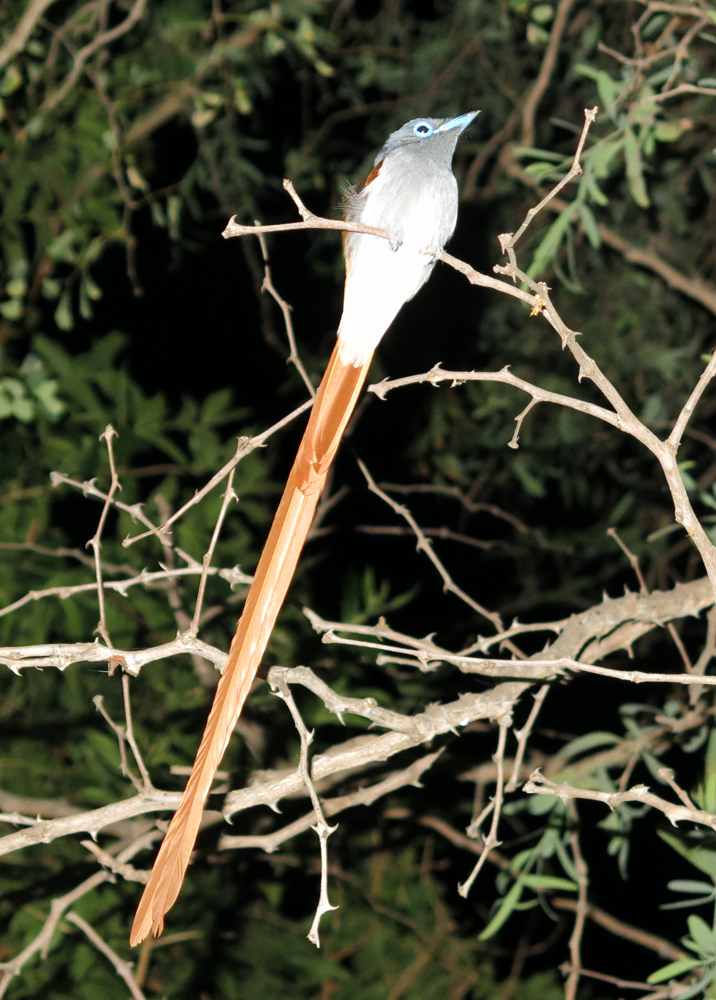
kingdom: Animalia
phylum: Chordata
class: Aves
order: Passeriformes
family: Monarchidae
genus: Terpsiphone
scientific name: Terpsiphone viridis
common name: African paradise flycatcher
